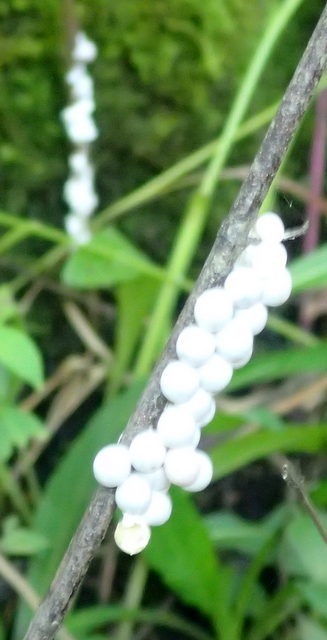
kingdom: Animalia
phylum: Mollusca
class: Gastropoda
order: Architaenioglossa
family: Ampullariidae
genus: Pomacea
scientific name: Pomacea paludosa
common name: Florida applesnail
